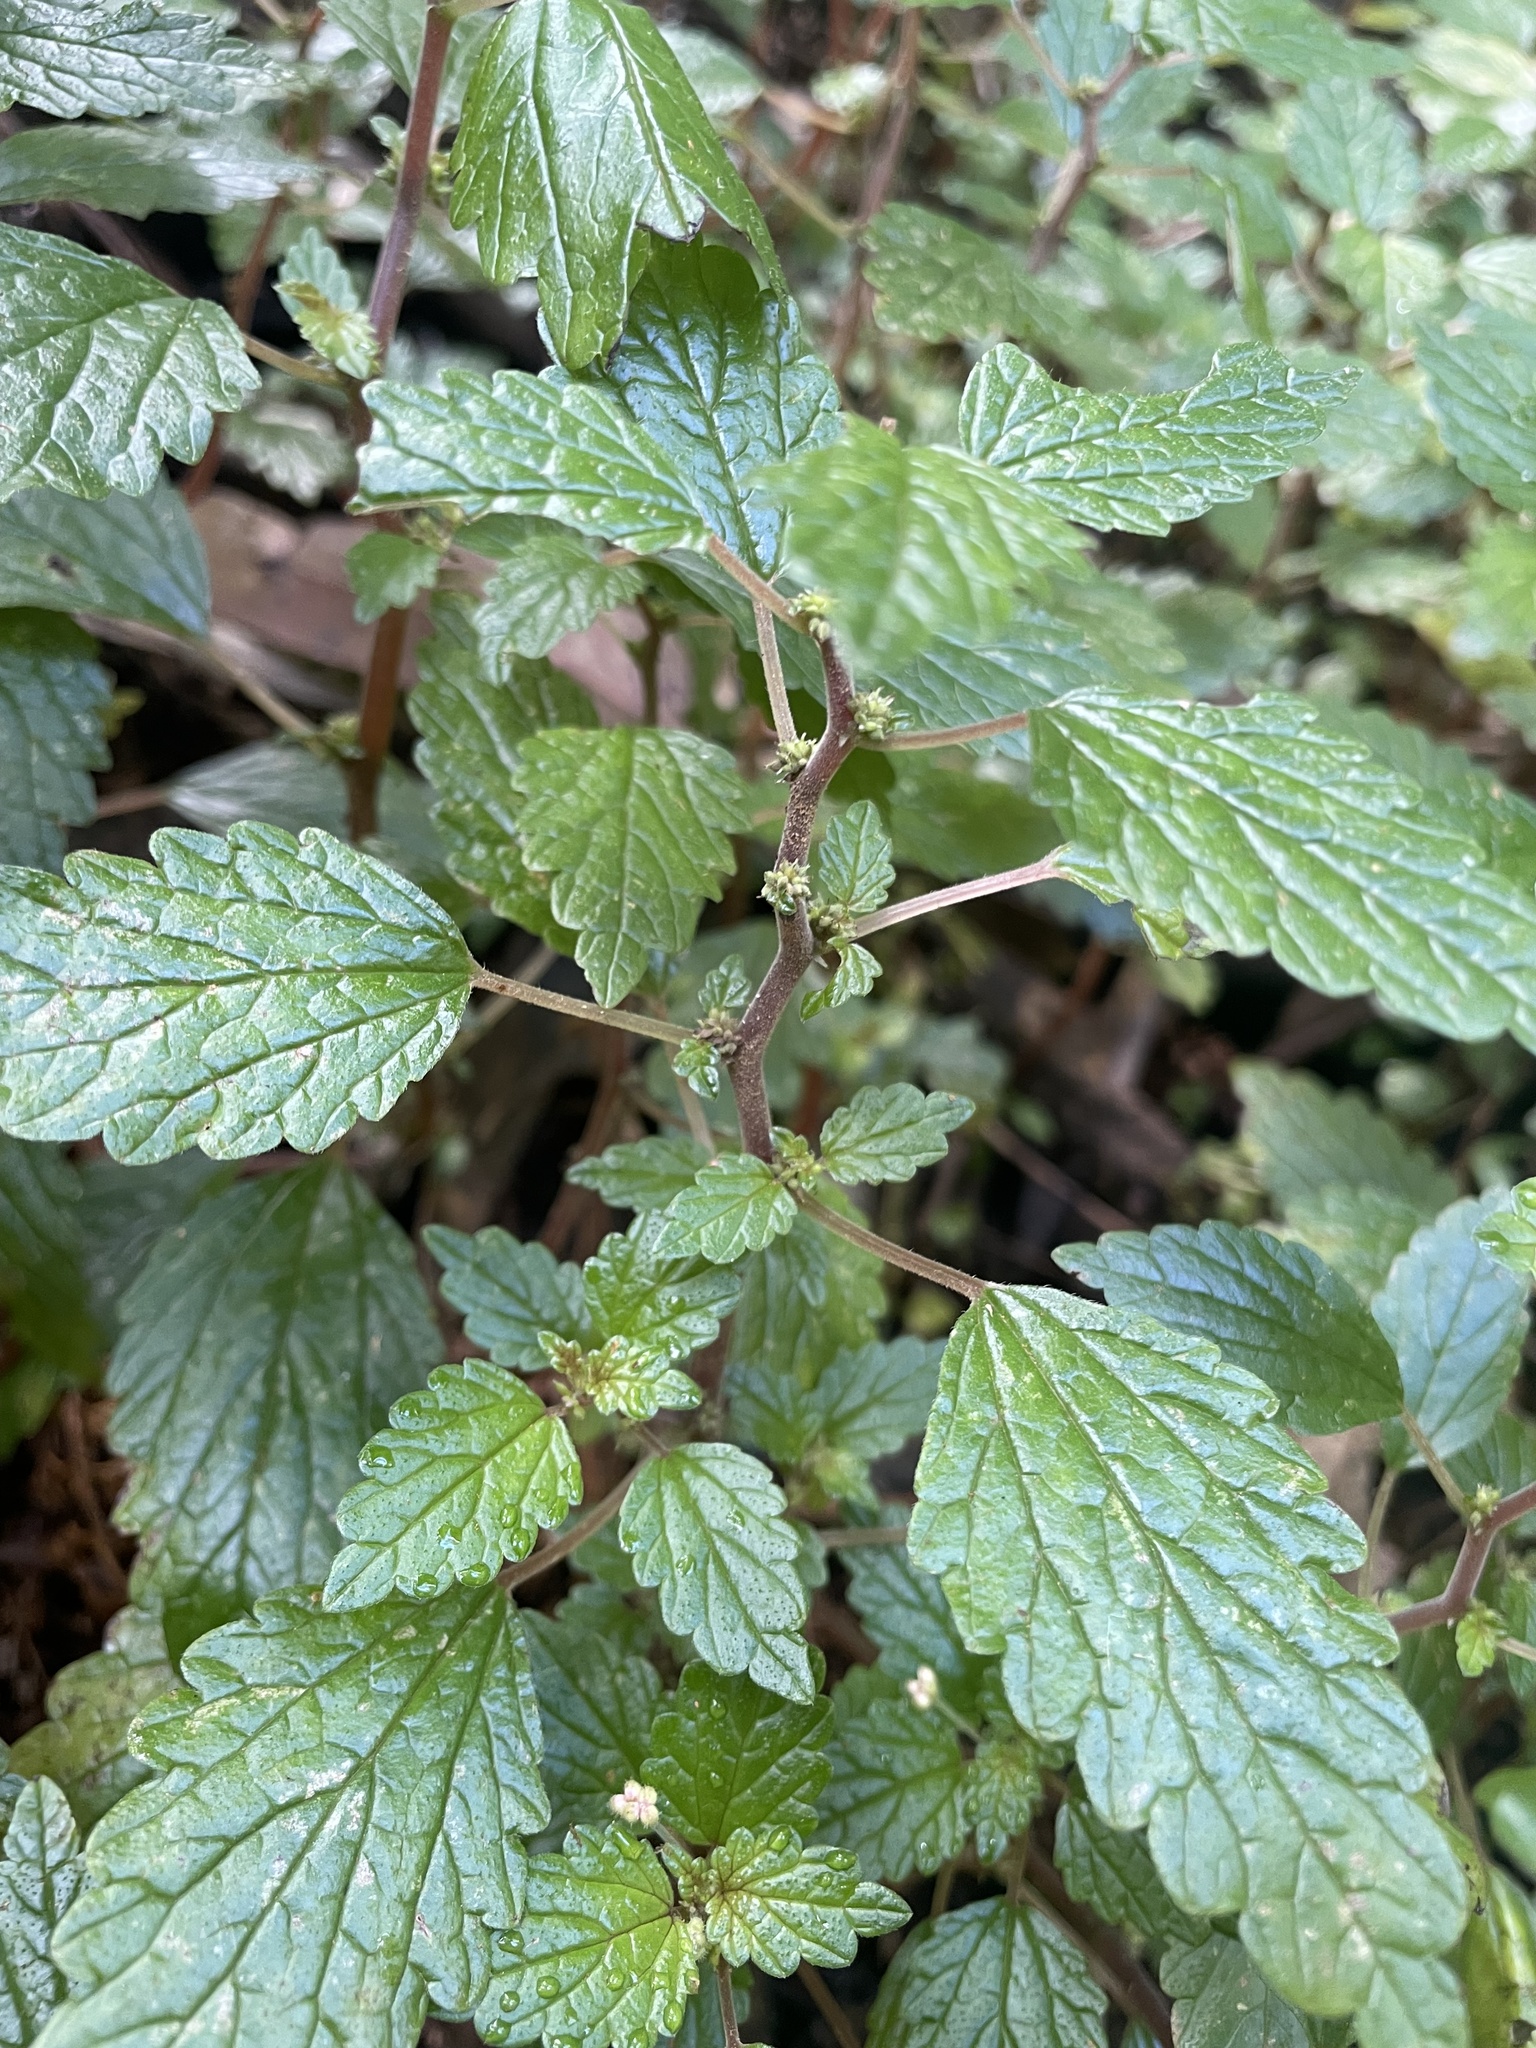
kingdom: Plantae
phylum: Tracheophyta
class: Magnoliopsida
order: Rosales
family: Urticaceae
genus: Australina
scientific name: Australina pusilla
